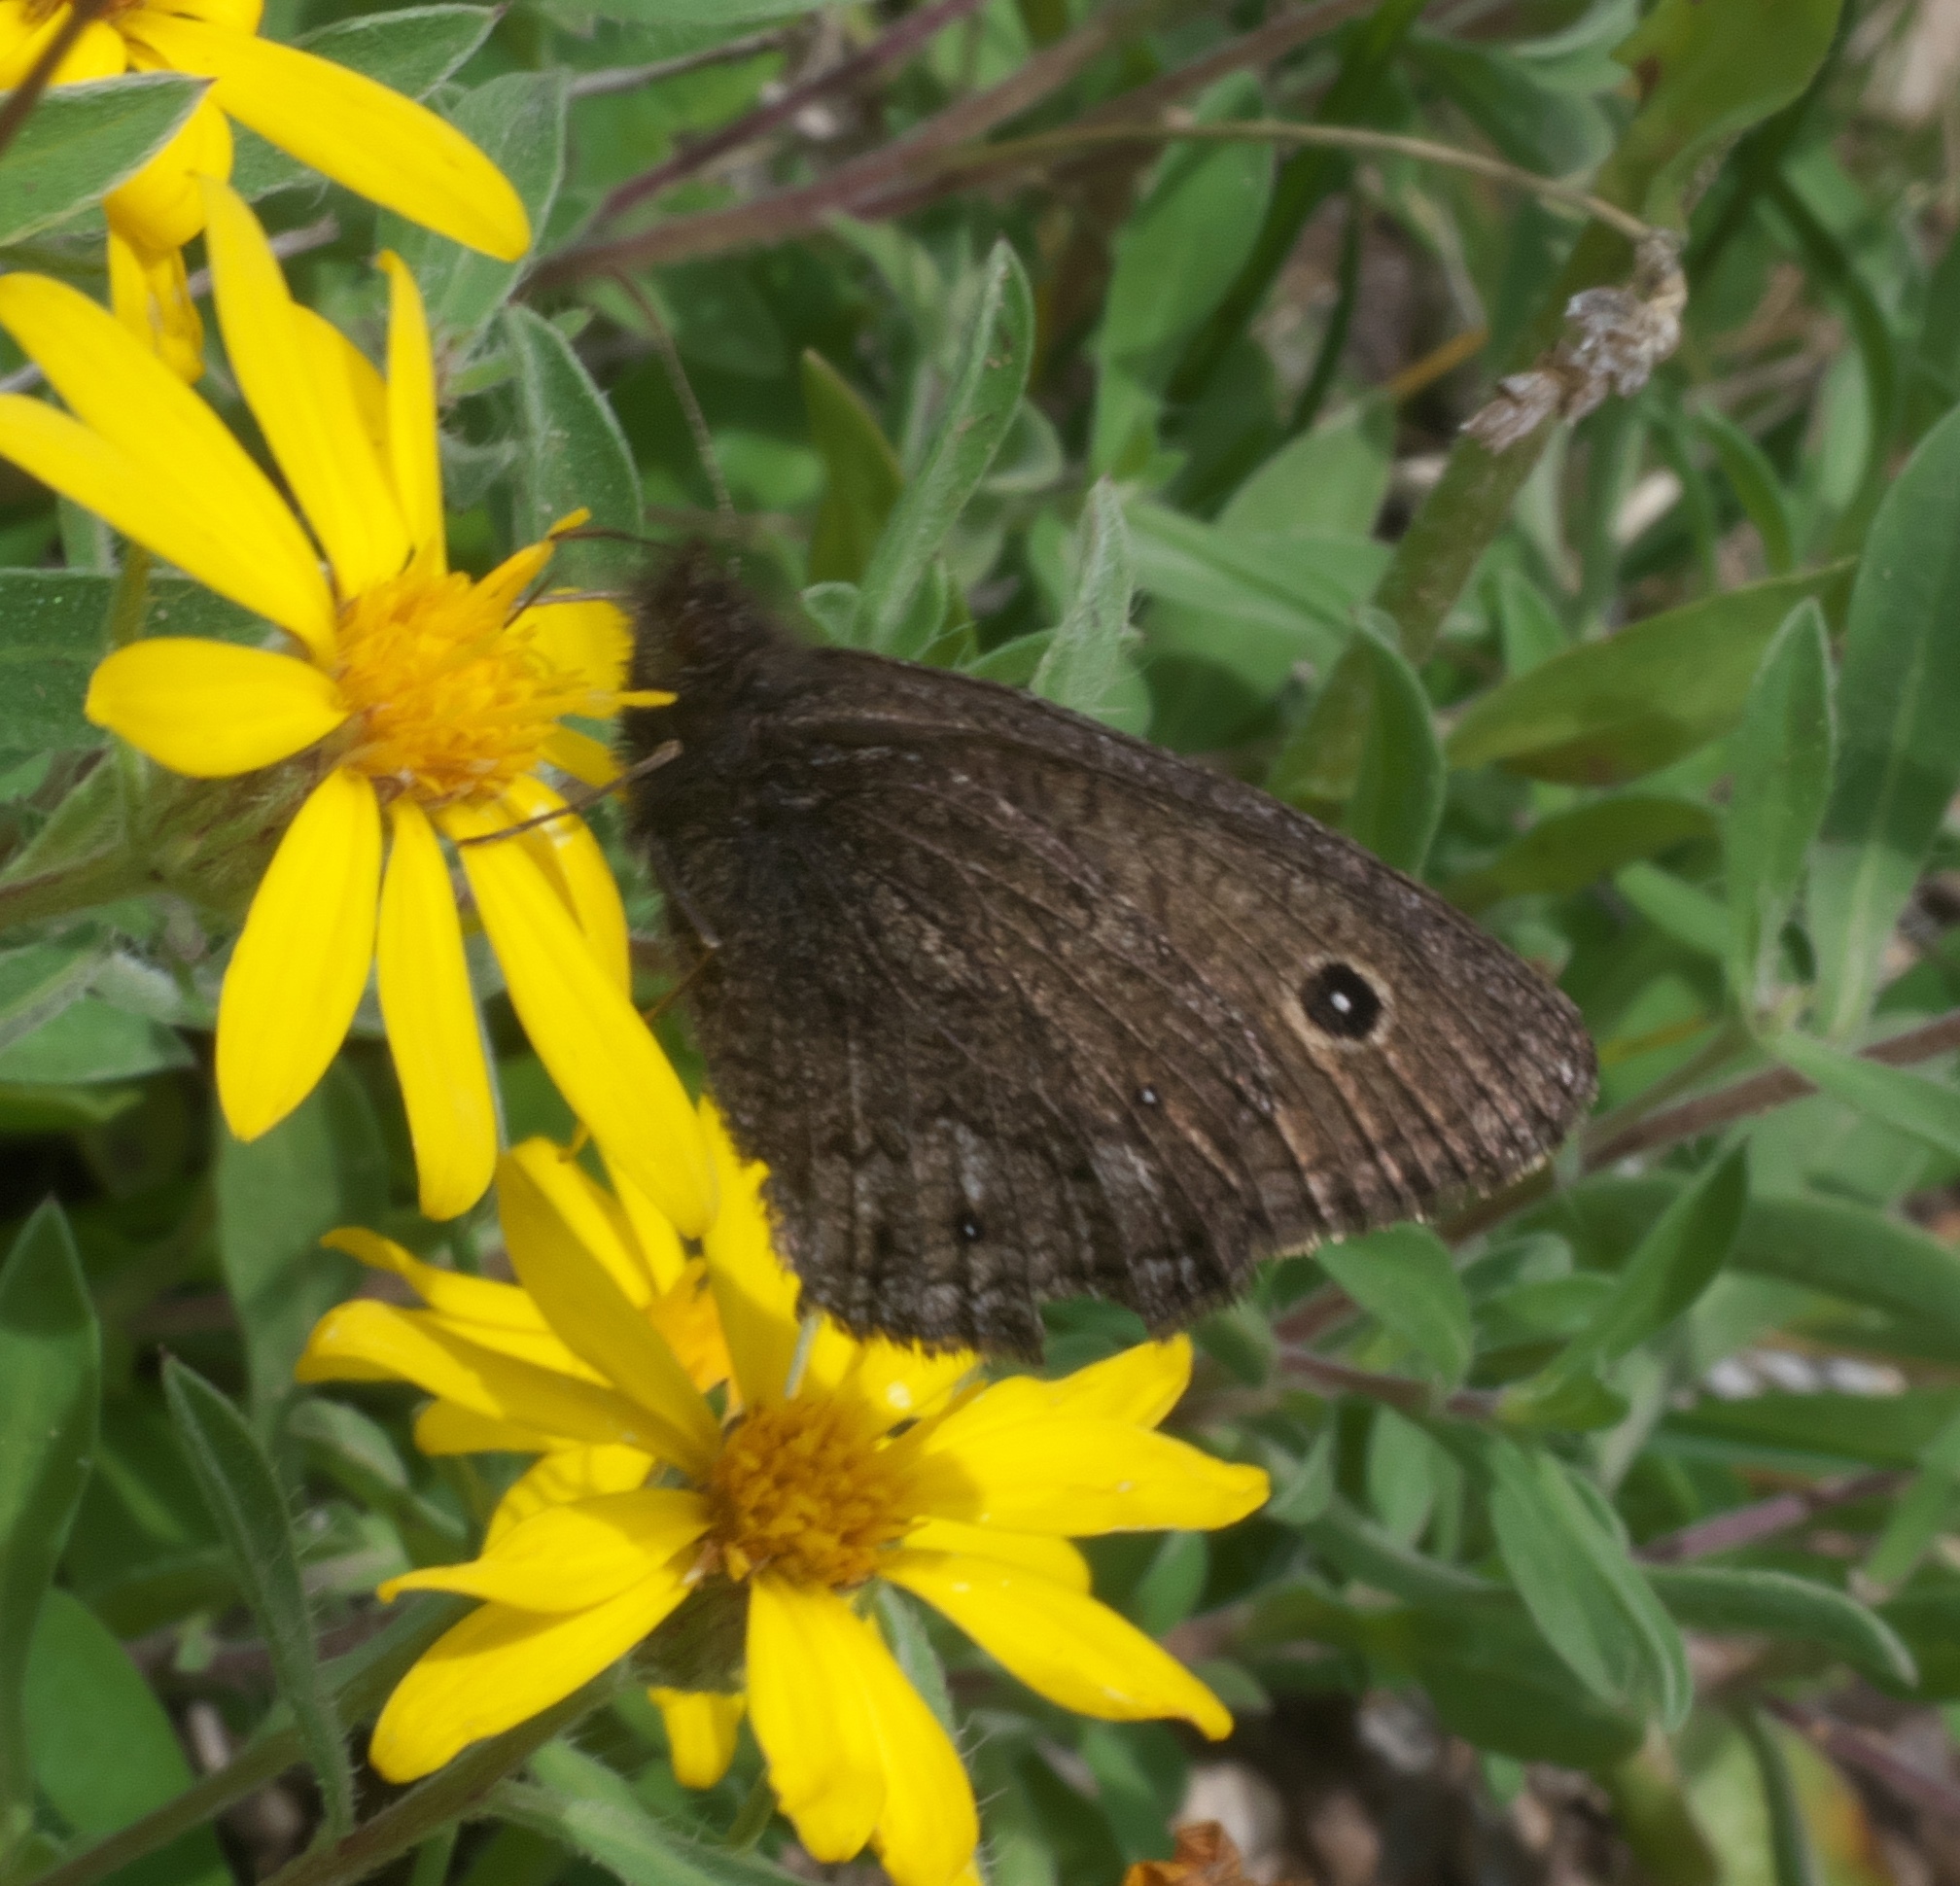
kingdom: Animalia
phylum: Arthropoda
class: Insecta
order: Lepidoptera
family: Nymphalidae
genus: Cercyonis
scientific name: Cercyonis oetus
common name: Small wood-nymph
